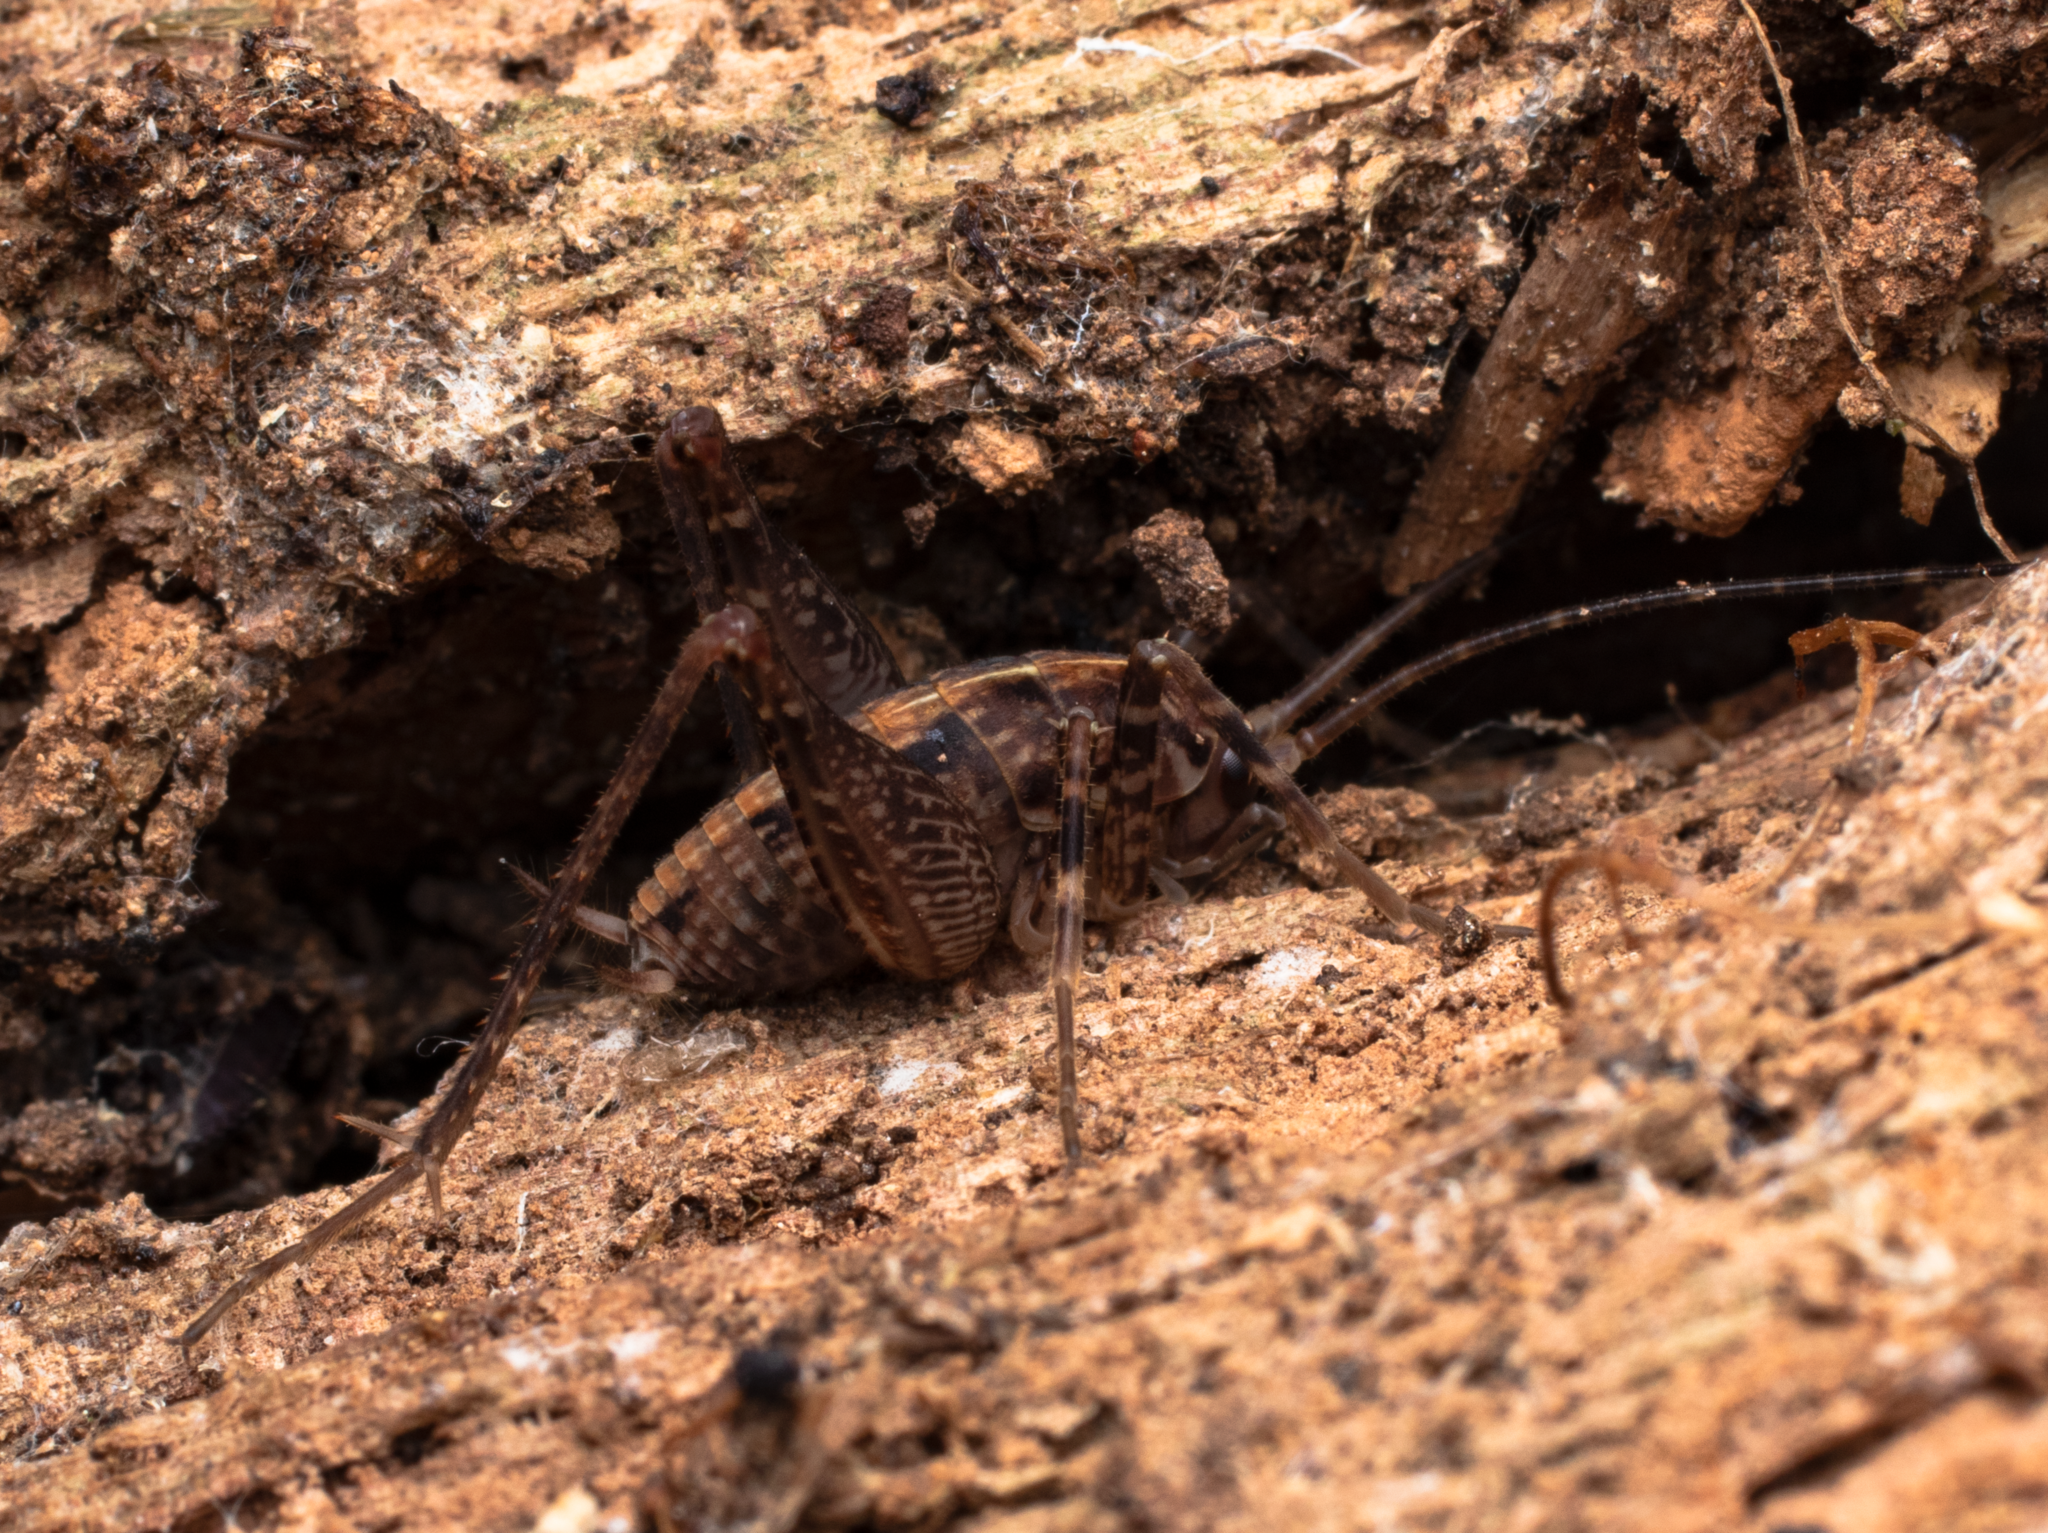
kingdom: Animalia
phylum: Arthropoda
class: Insecta
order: Orthoptera
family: Rhaphidophoridae
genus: Pleioplectron
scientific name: Pleioplectron simplex
